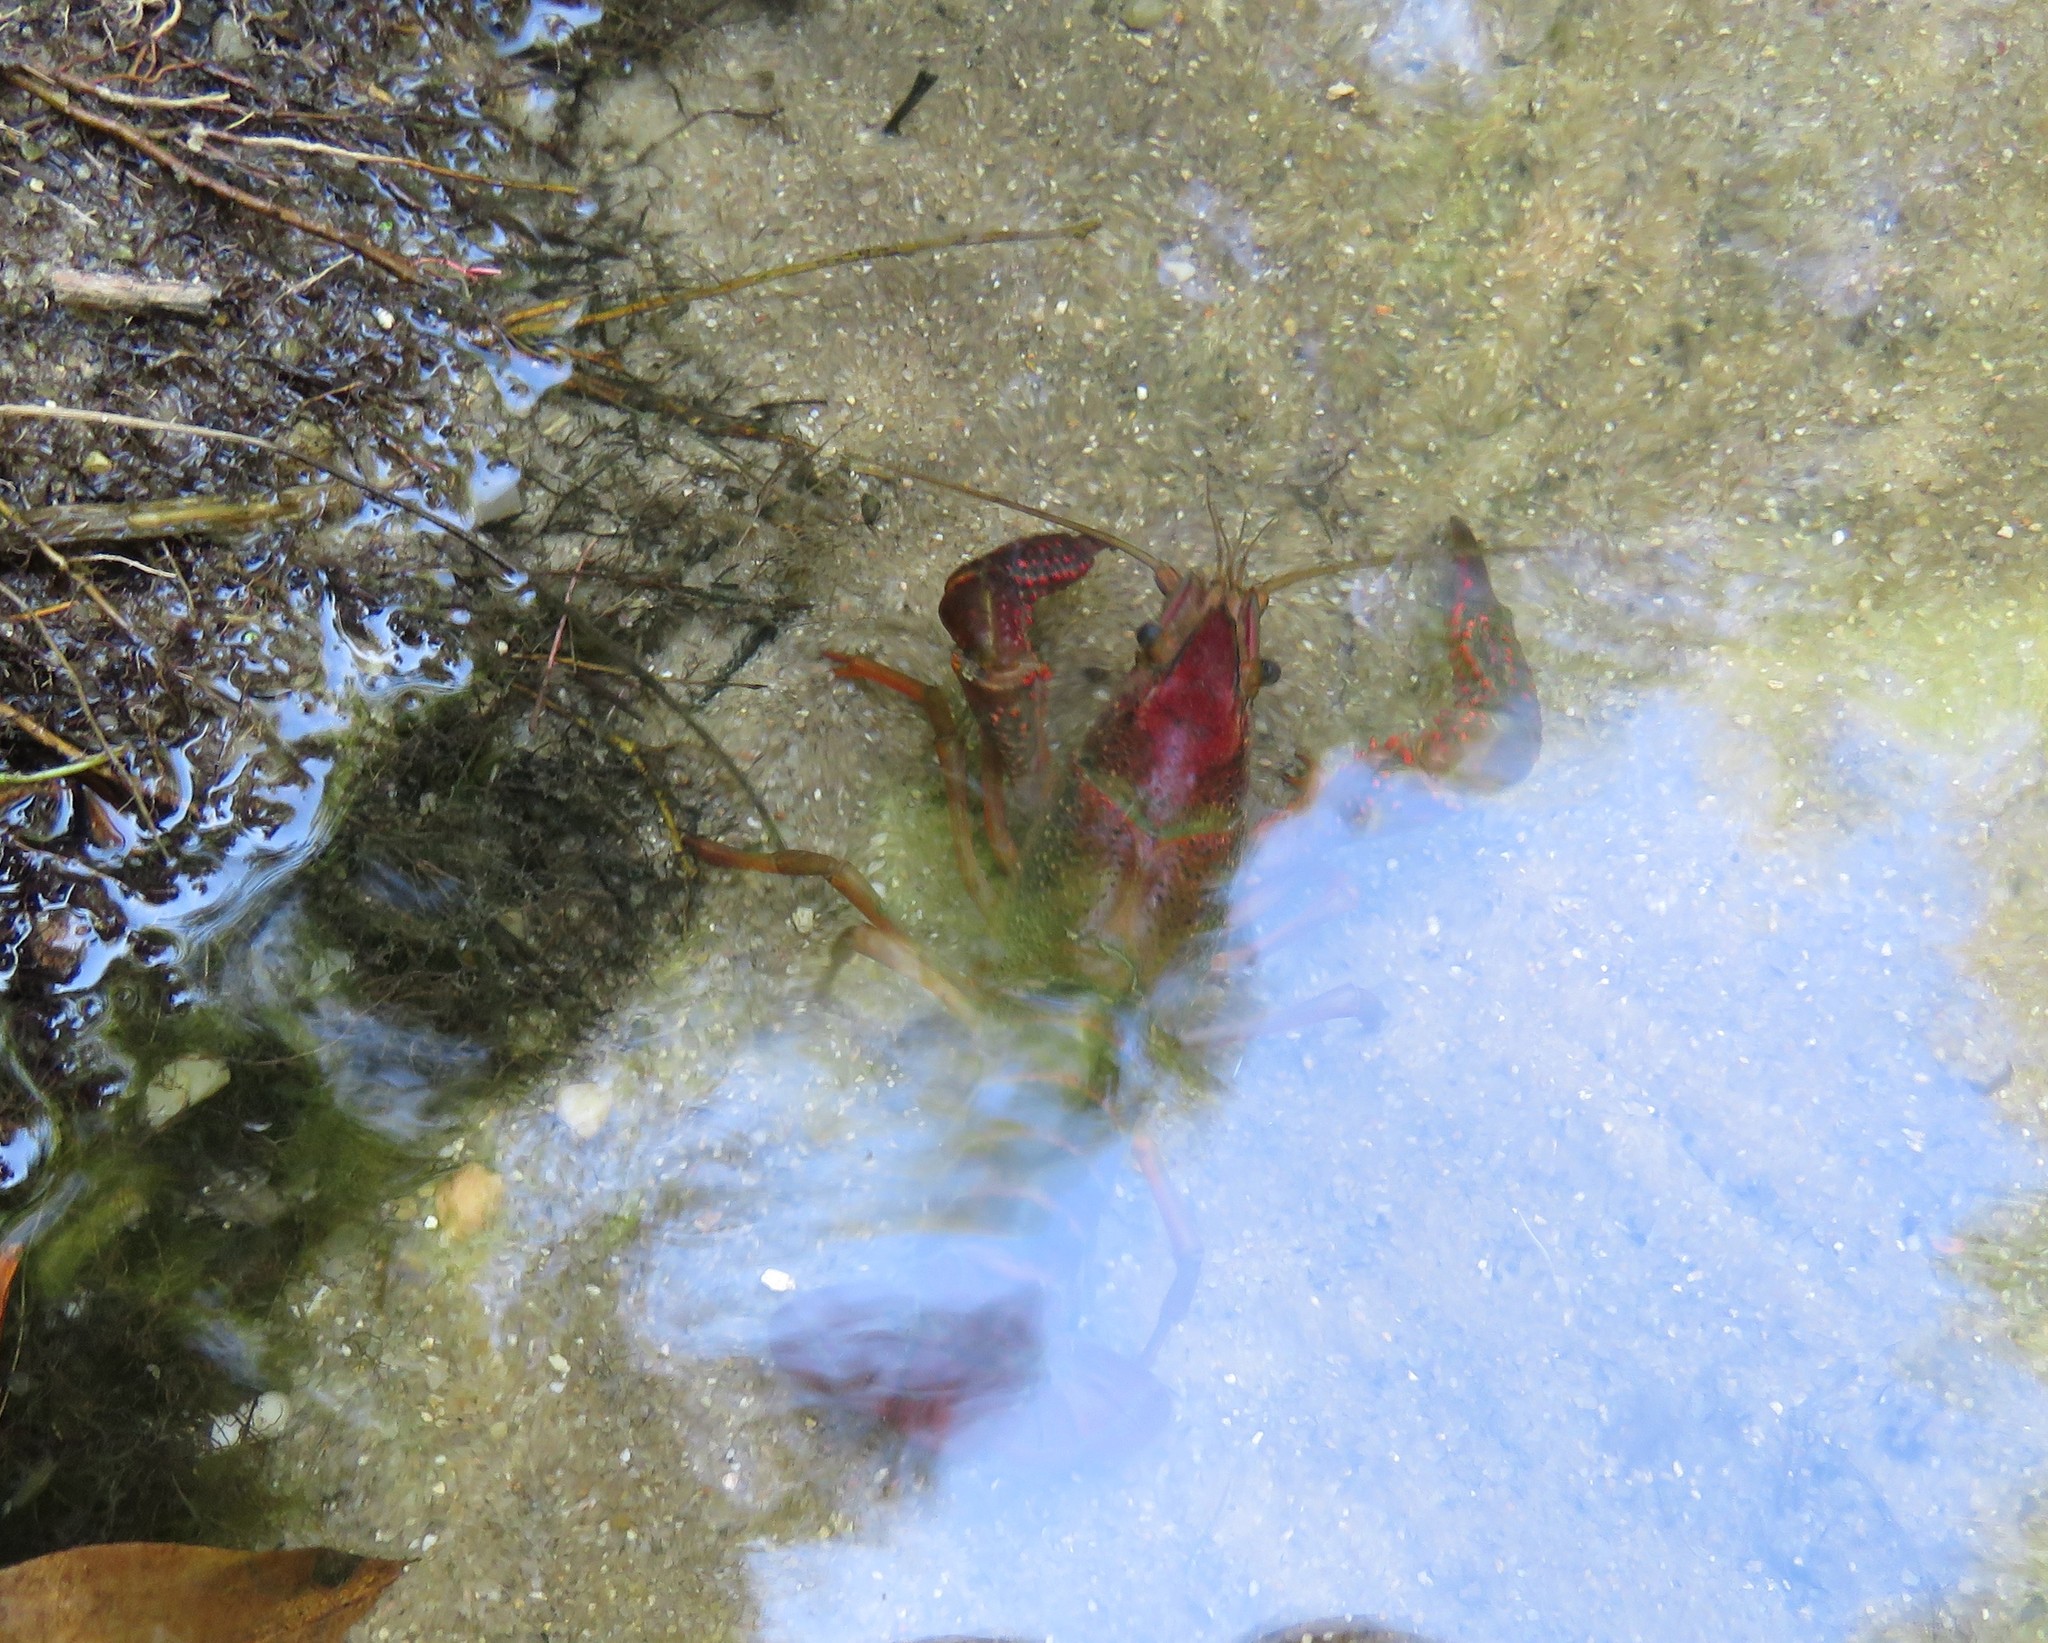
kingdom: Animalia
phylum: Arthropoda
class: Malacostraca
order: Decapoda
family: Cambaridae
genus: Procambarus
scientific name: Procambarus clarkii
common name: Red swamp crayfish
